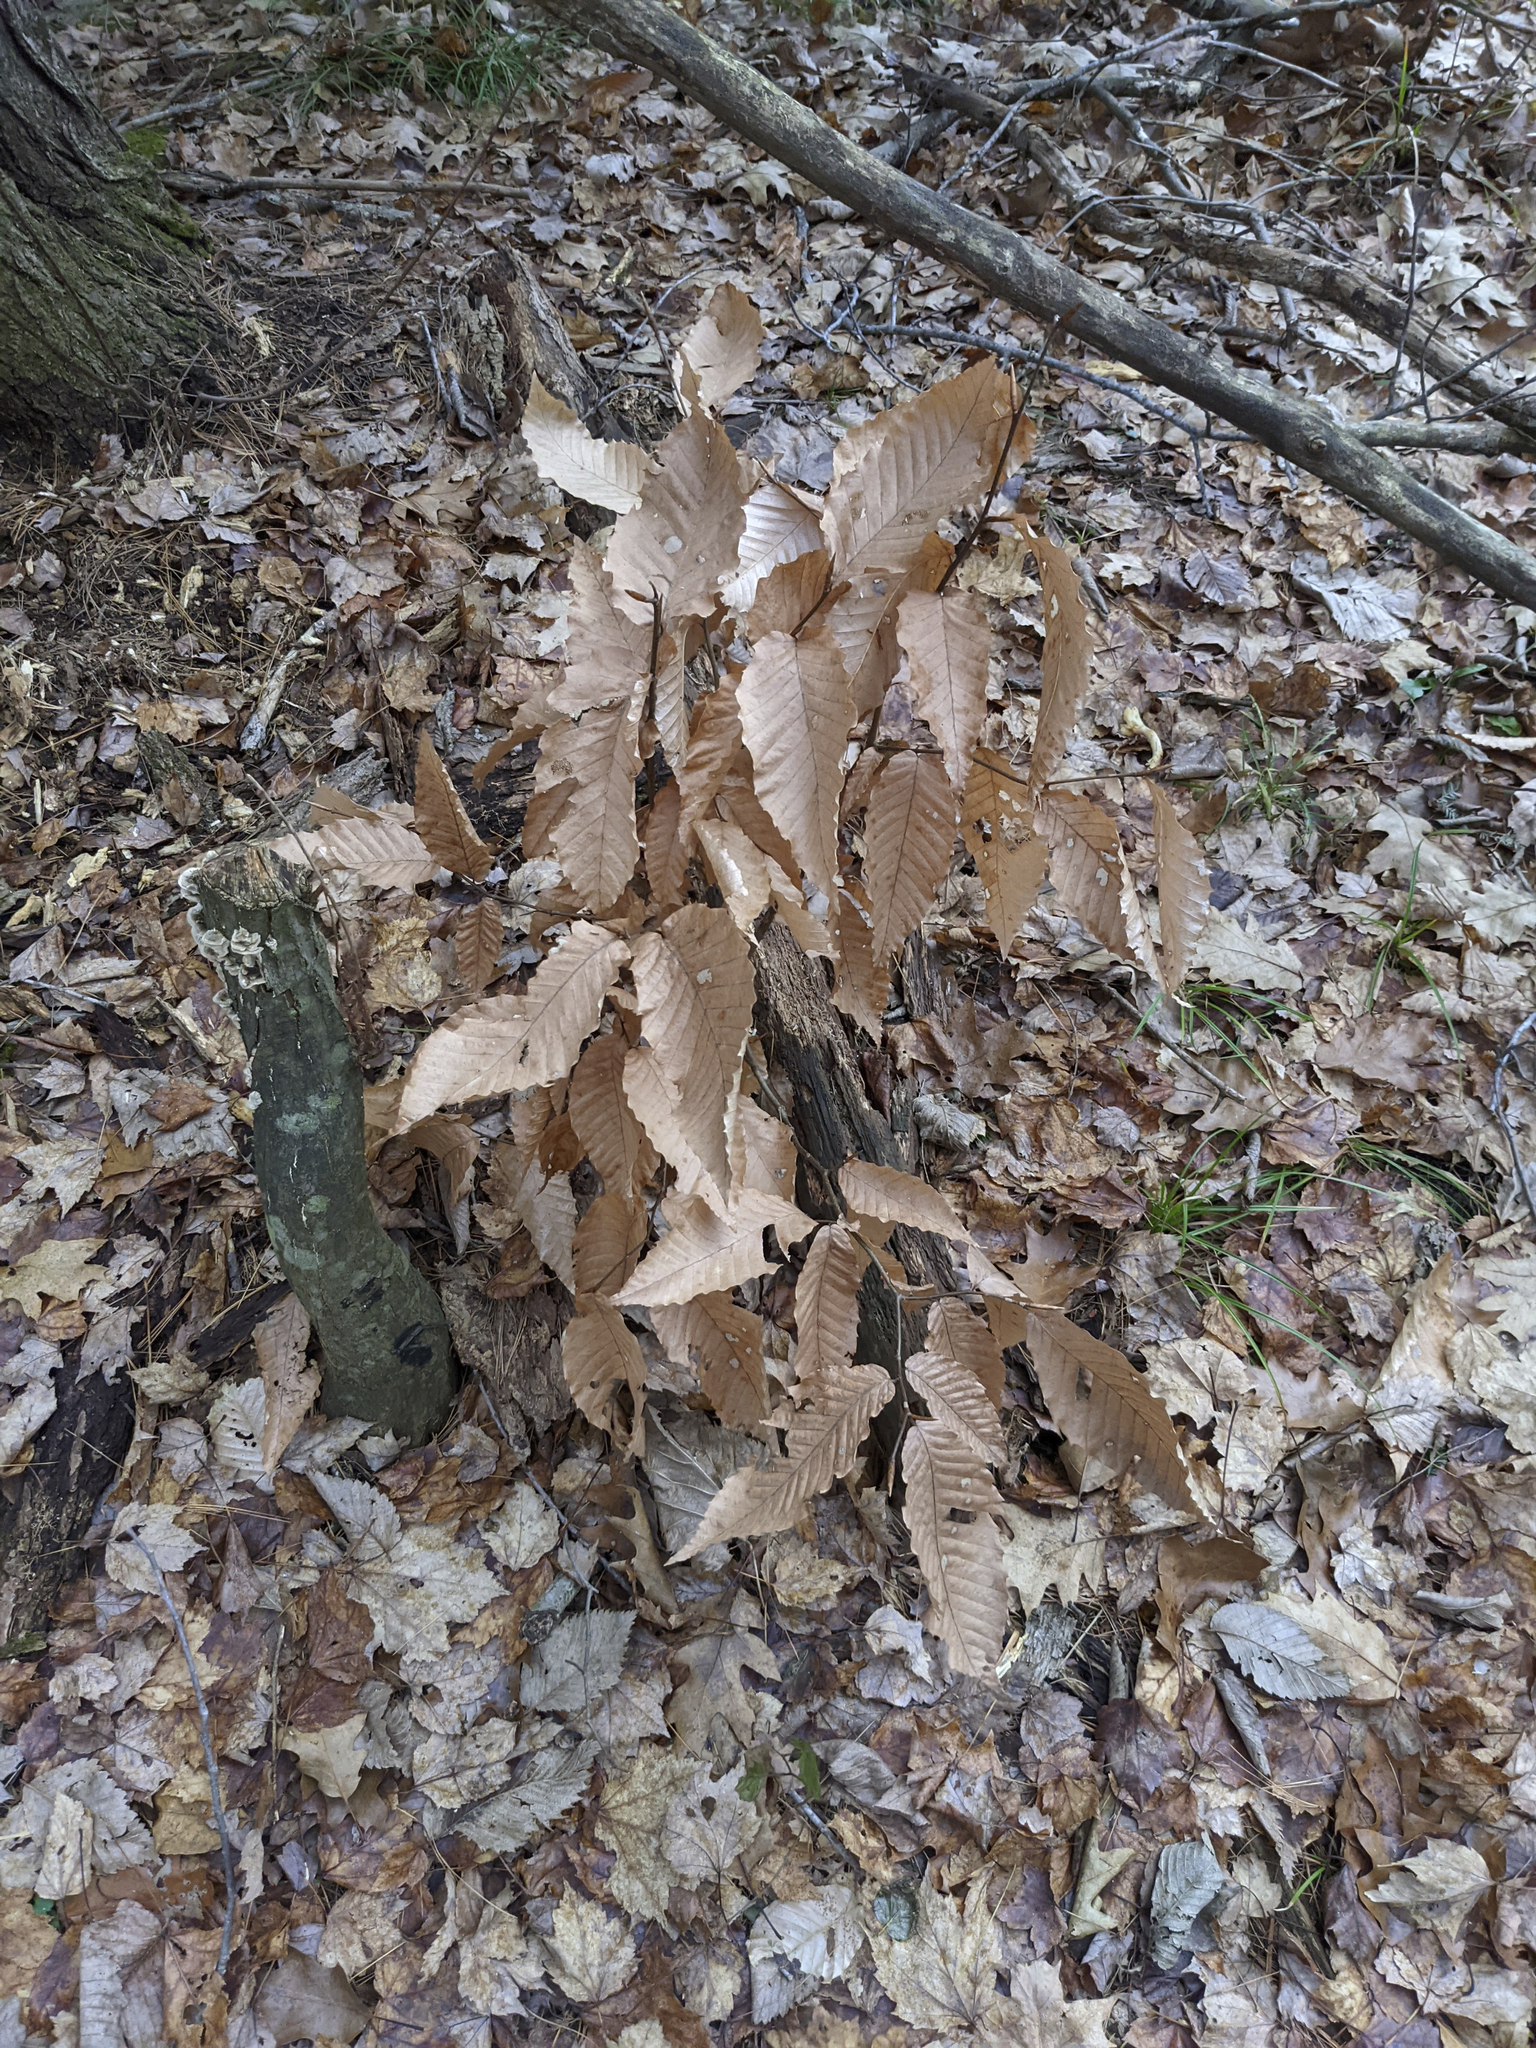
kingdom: Plantae
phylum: Tracheophyta
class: Magnoliopsida
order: Fagales
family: Fagaceae
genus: Fagus
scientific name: Fagus grandifolia
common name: American beech
